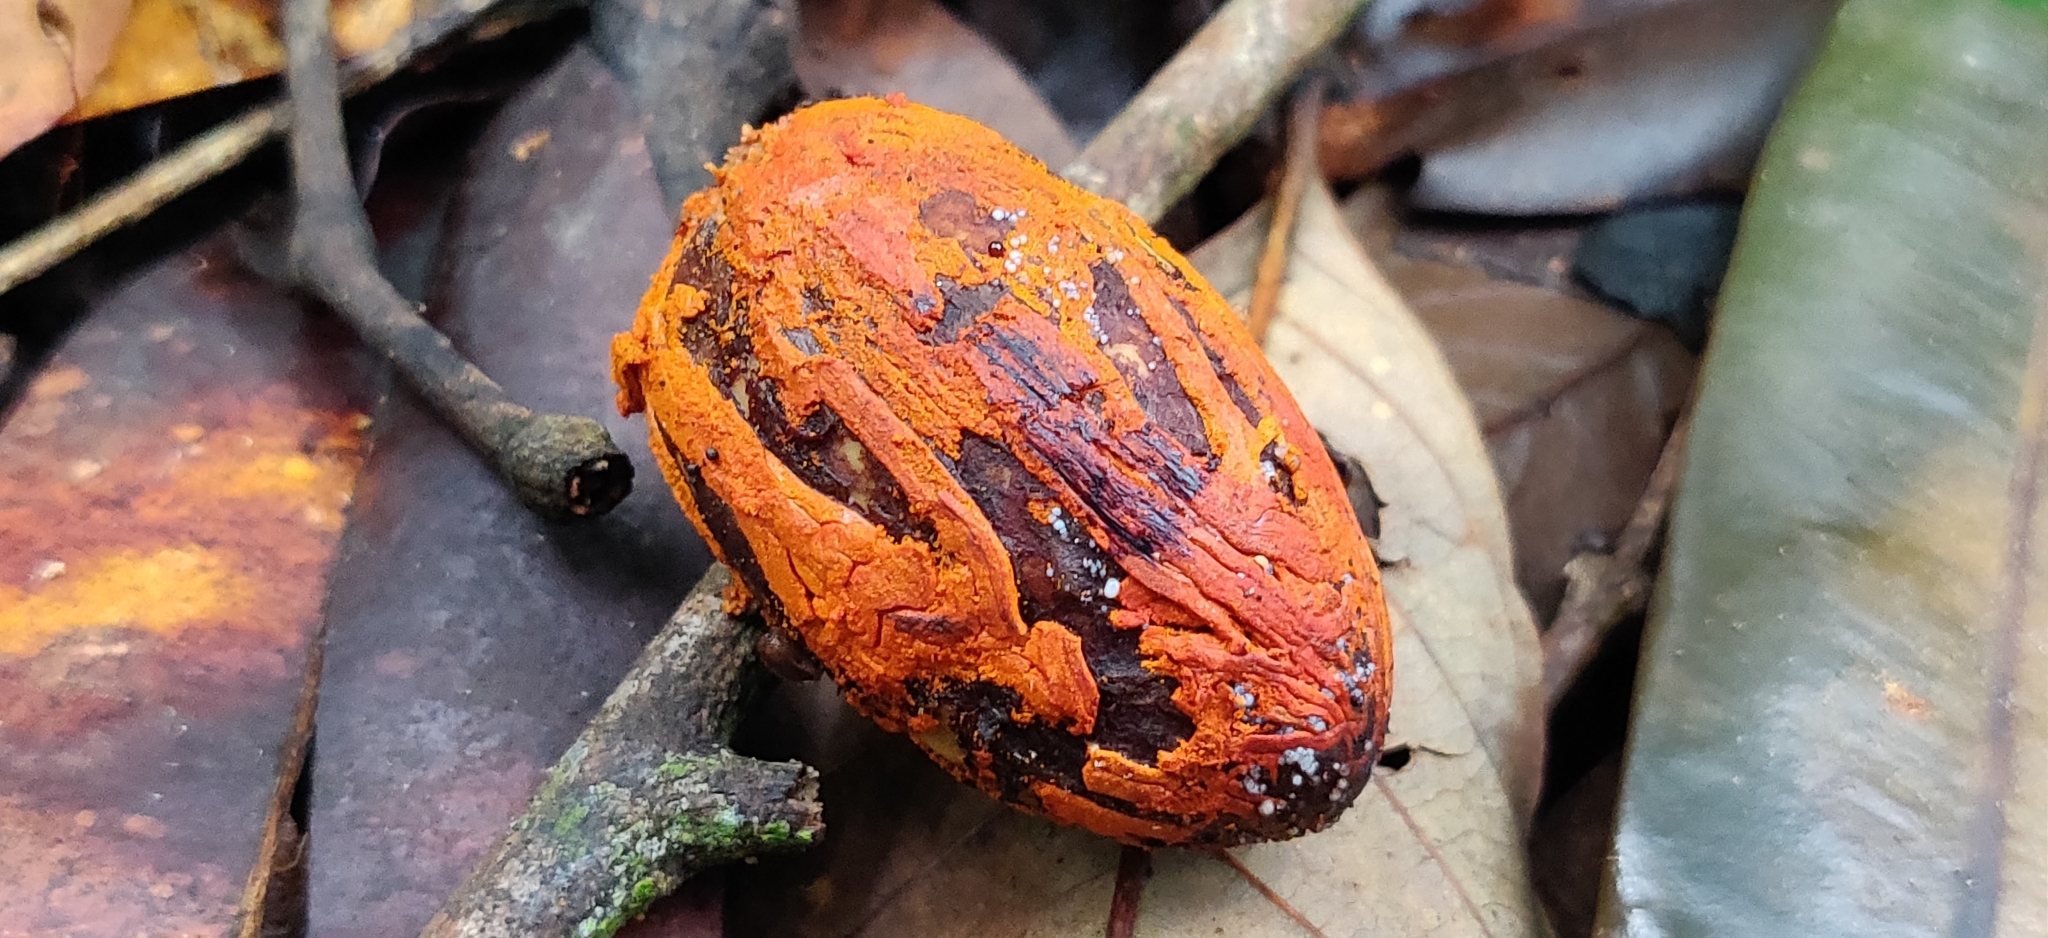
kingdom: Plantae
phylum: Tracheophyta
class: Magnoliopsida
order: Magnoliales
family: Myristicaceae
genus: Myristica
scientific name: Myristica beddomei
